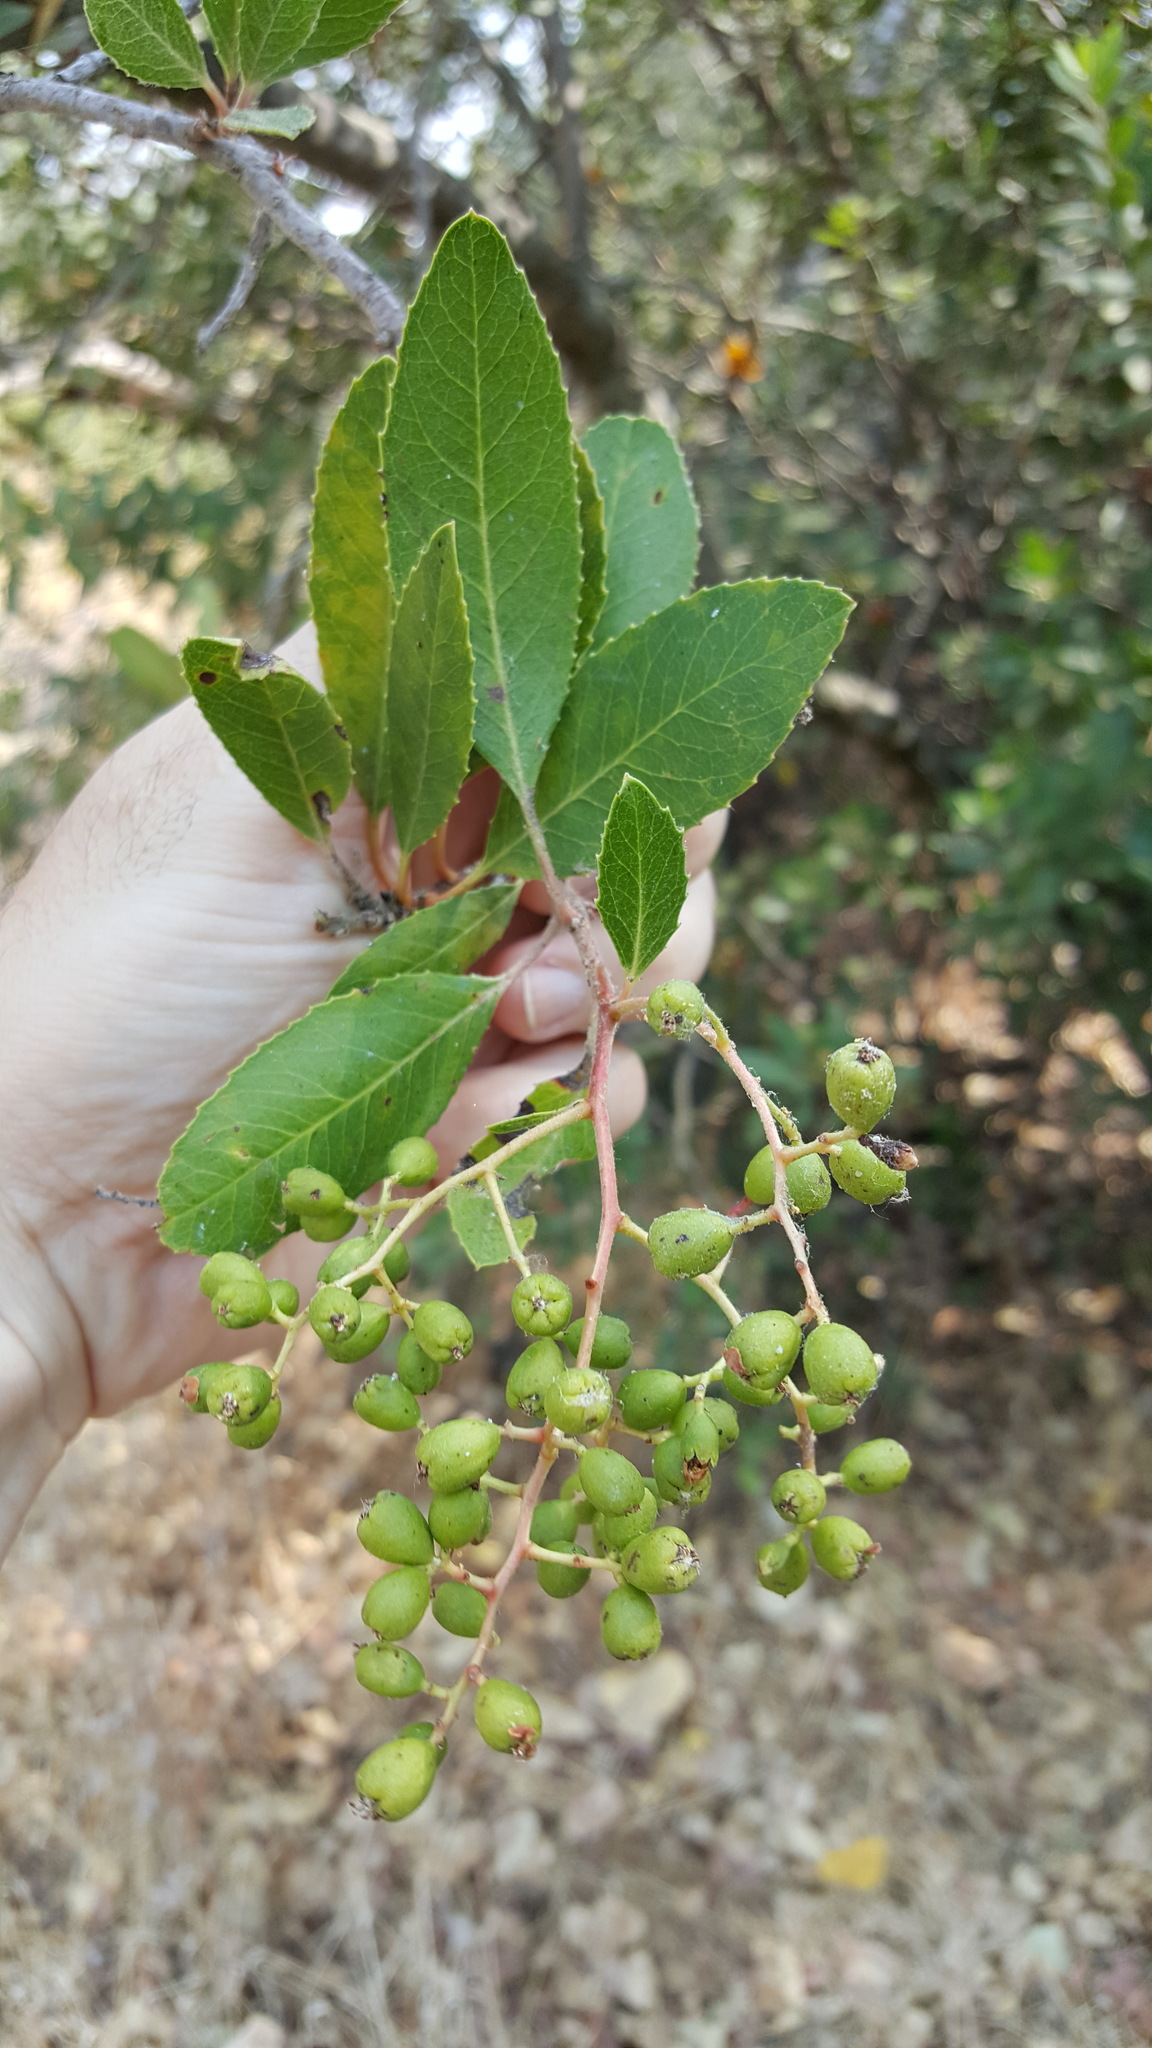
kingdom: Plantae
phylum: Tracheophyta
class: Magnoliopsida
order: Rosales
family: Rosaceae
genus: Heteromeles
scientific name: Heteromeles arbutifolia
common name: California-holly
